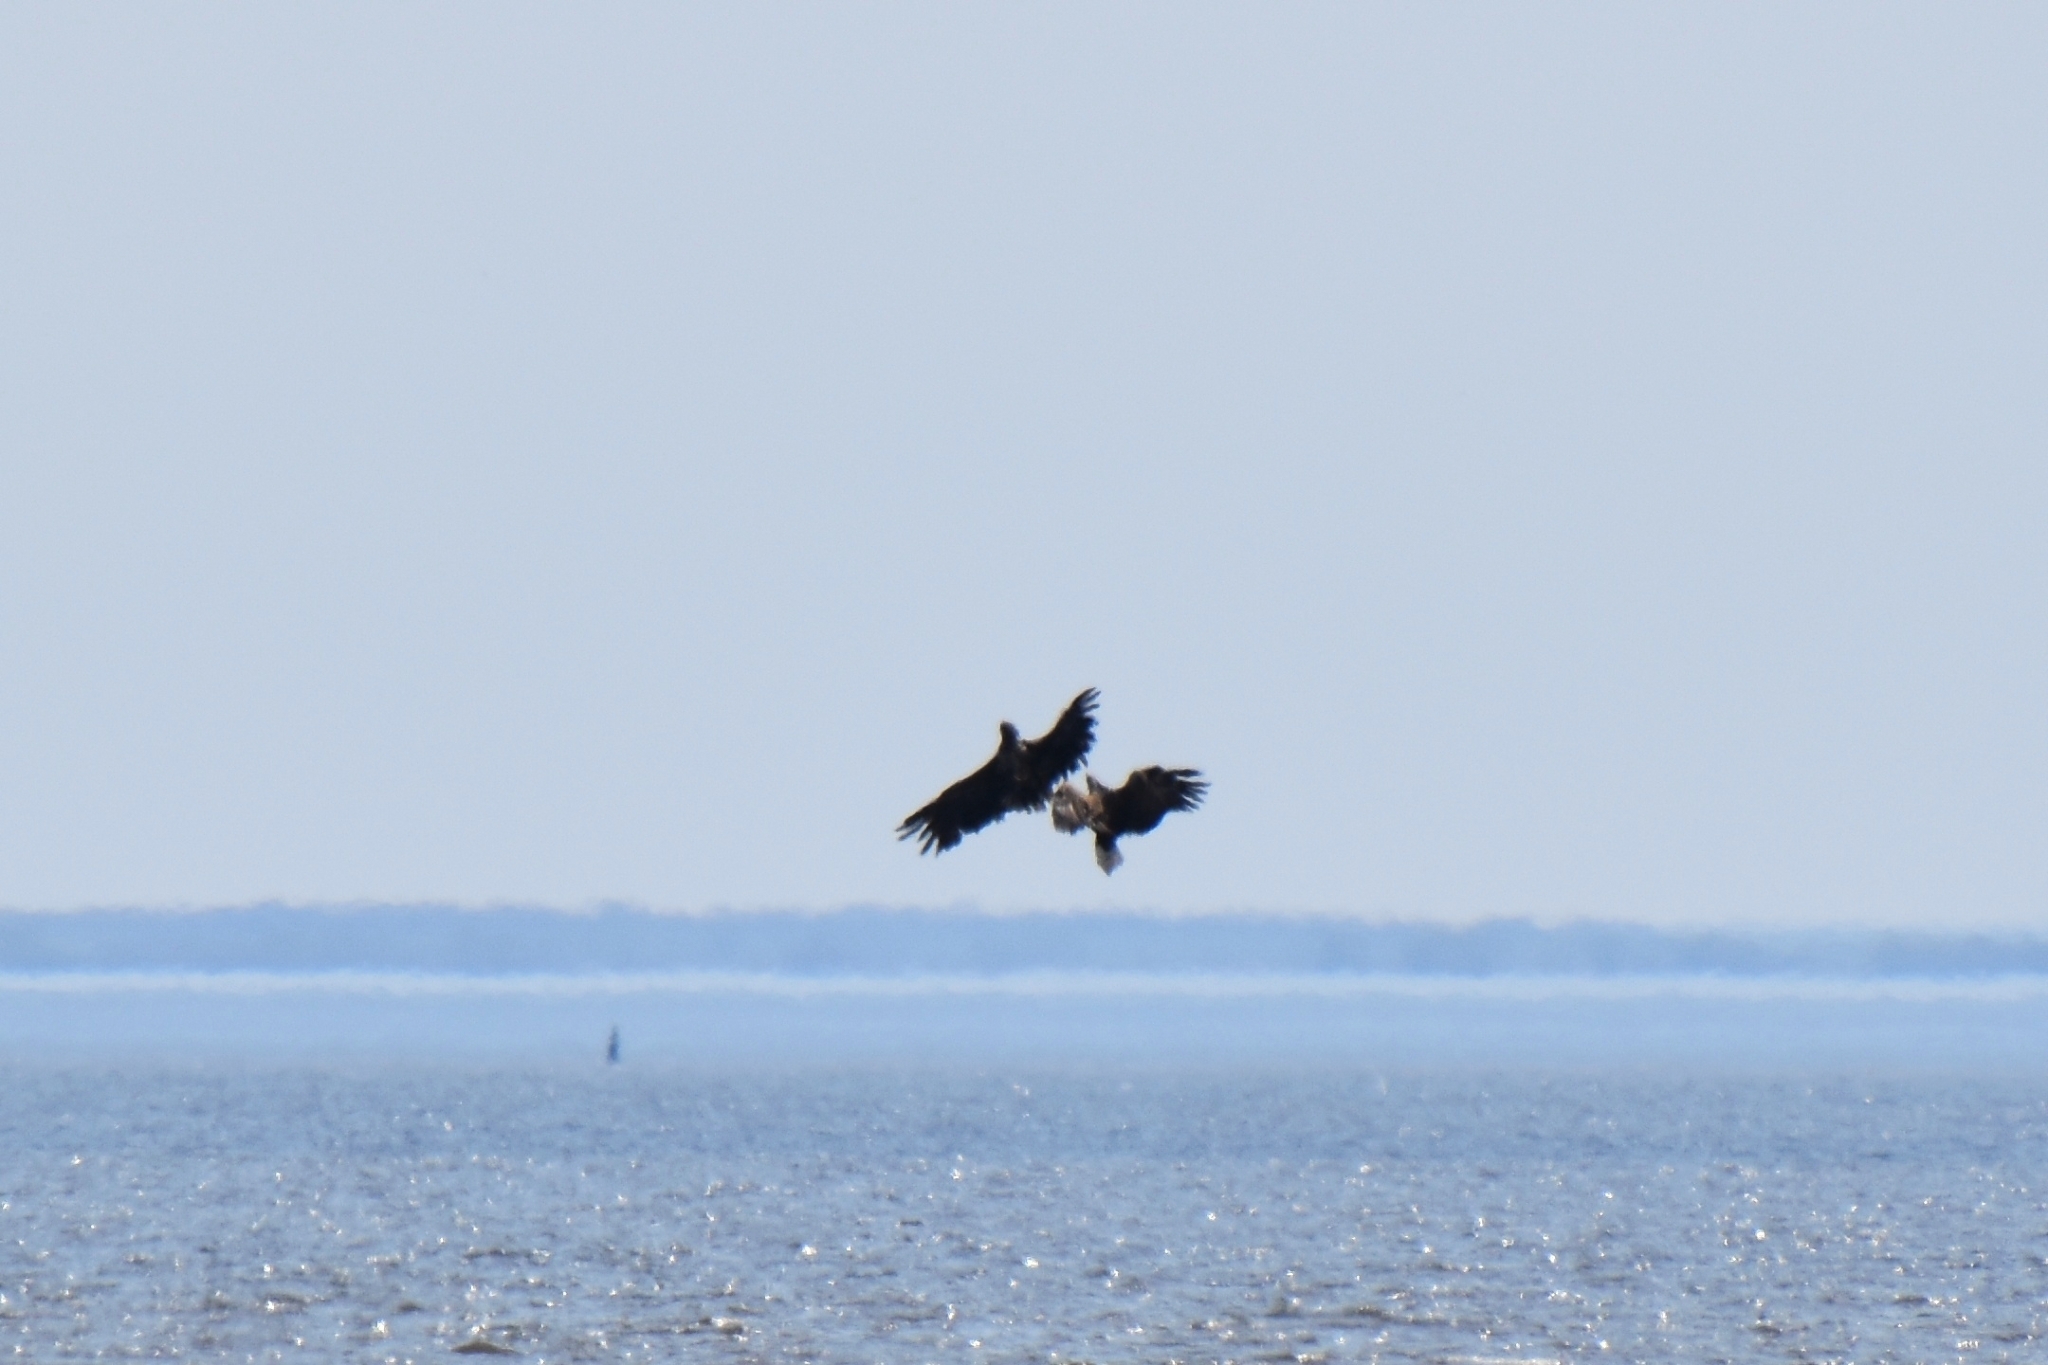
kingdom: Animalia
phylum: Chordata
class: Aves
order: Accipitriformes
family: Accipitridae
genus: Haliaeetus
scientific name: Haliaeetus albicilla
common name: White-tailed eagle
